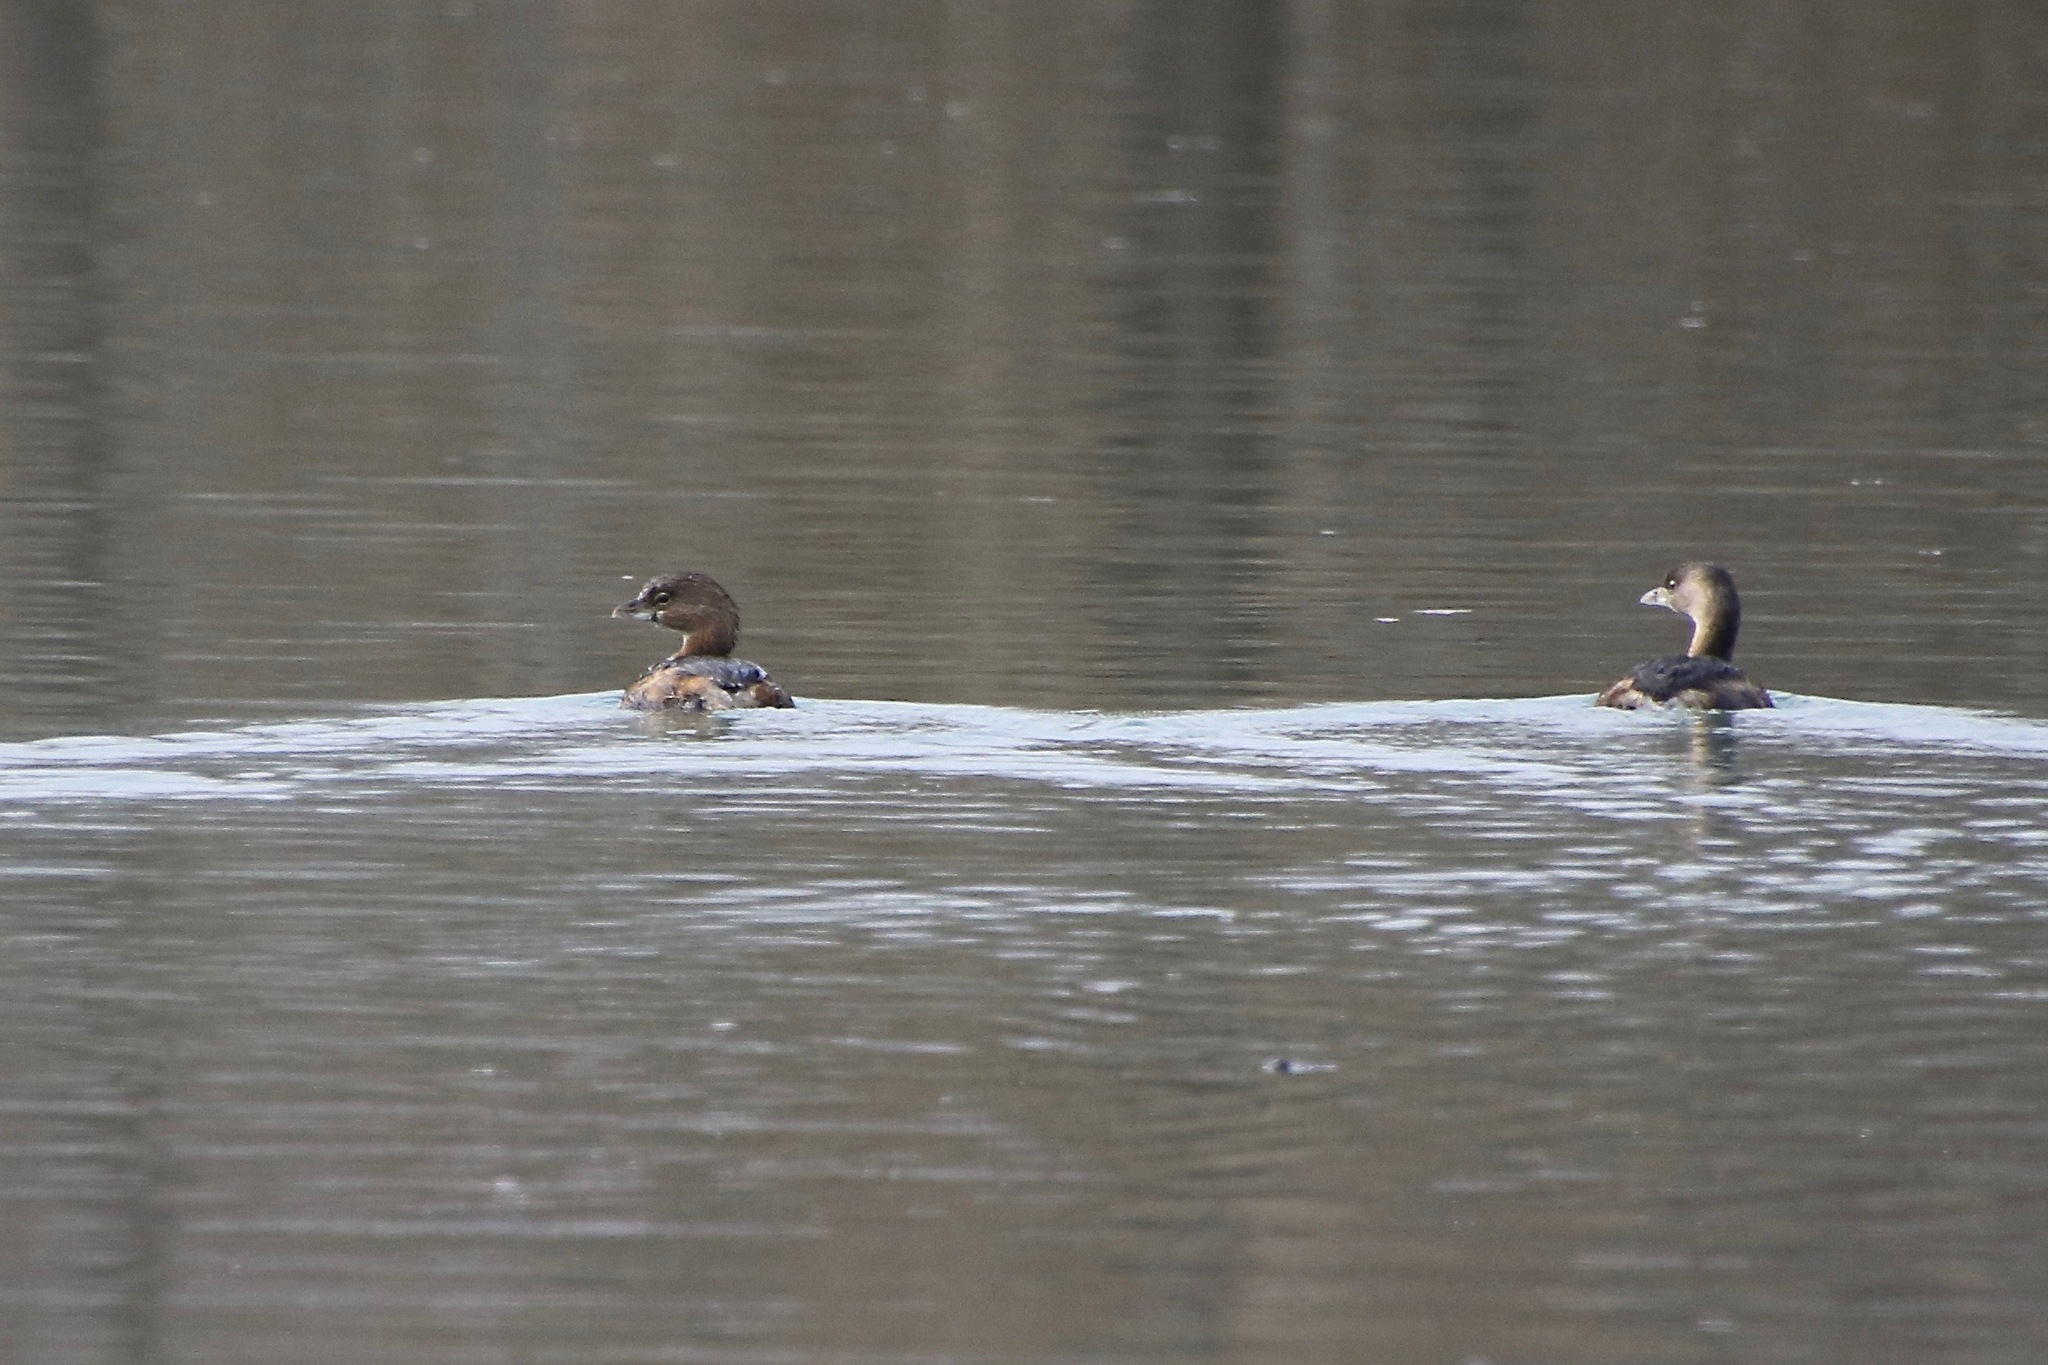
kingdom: Animalia
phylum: Chordata
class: Aves
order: Podicipediformes
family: Podicipedidae
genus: Podilymbus
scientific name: Podilymbus podiceps
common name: Pied-billed grebe
